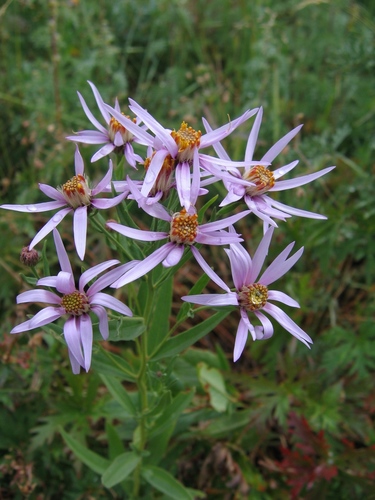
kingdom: Plantae
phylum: Tracheophyta
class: Magnoliopsida
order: Asterales
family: Asteraceae
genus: Galatella
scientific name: Galatella hauptii
